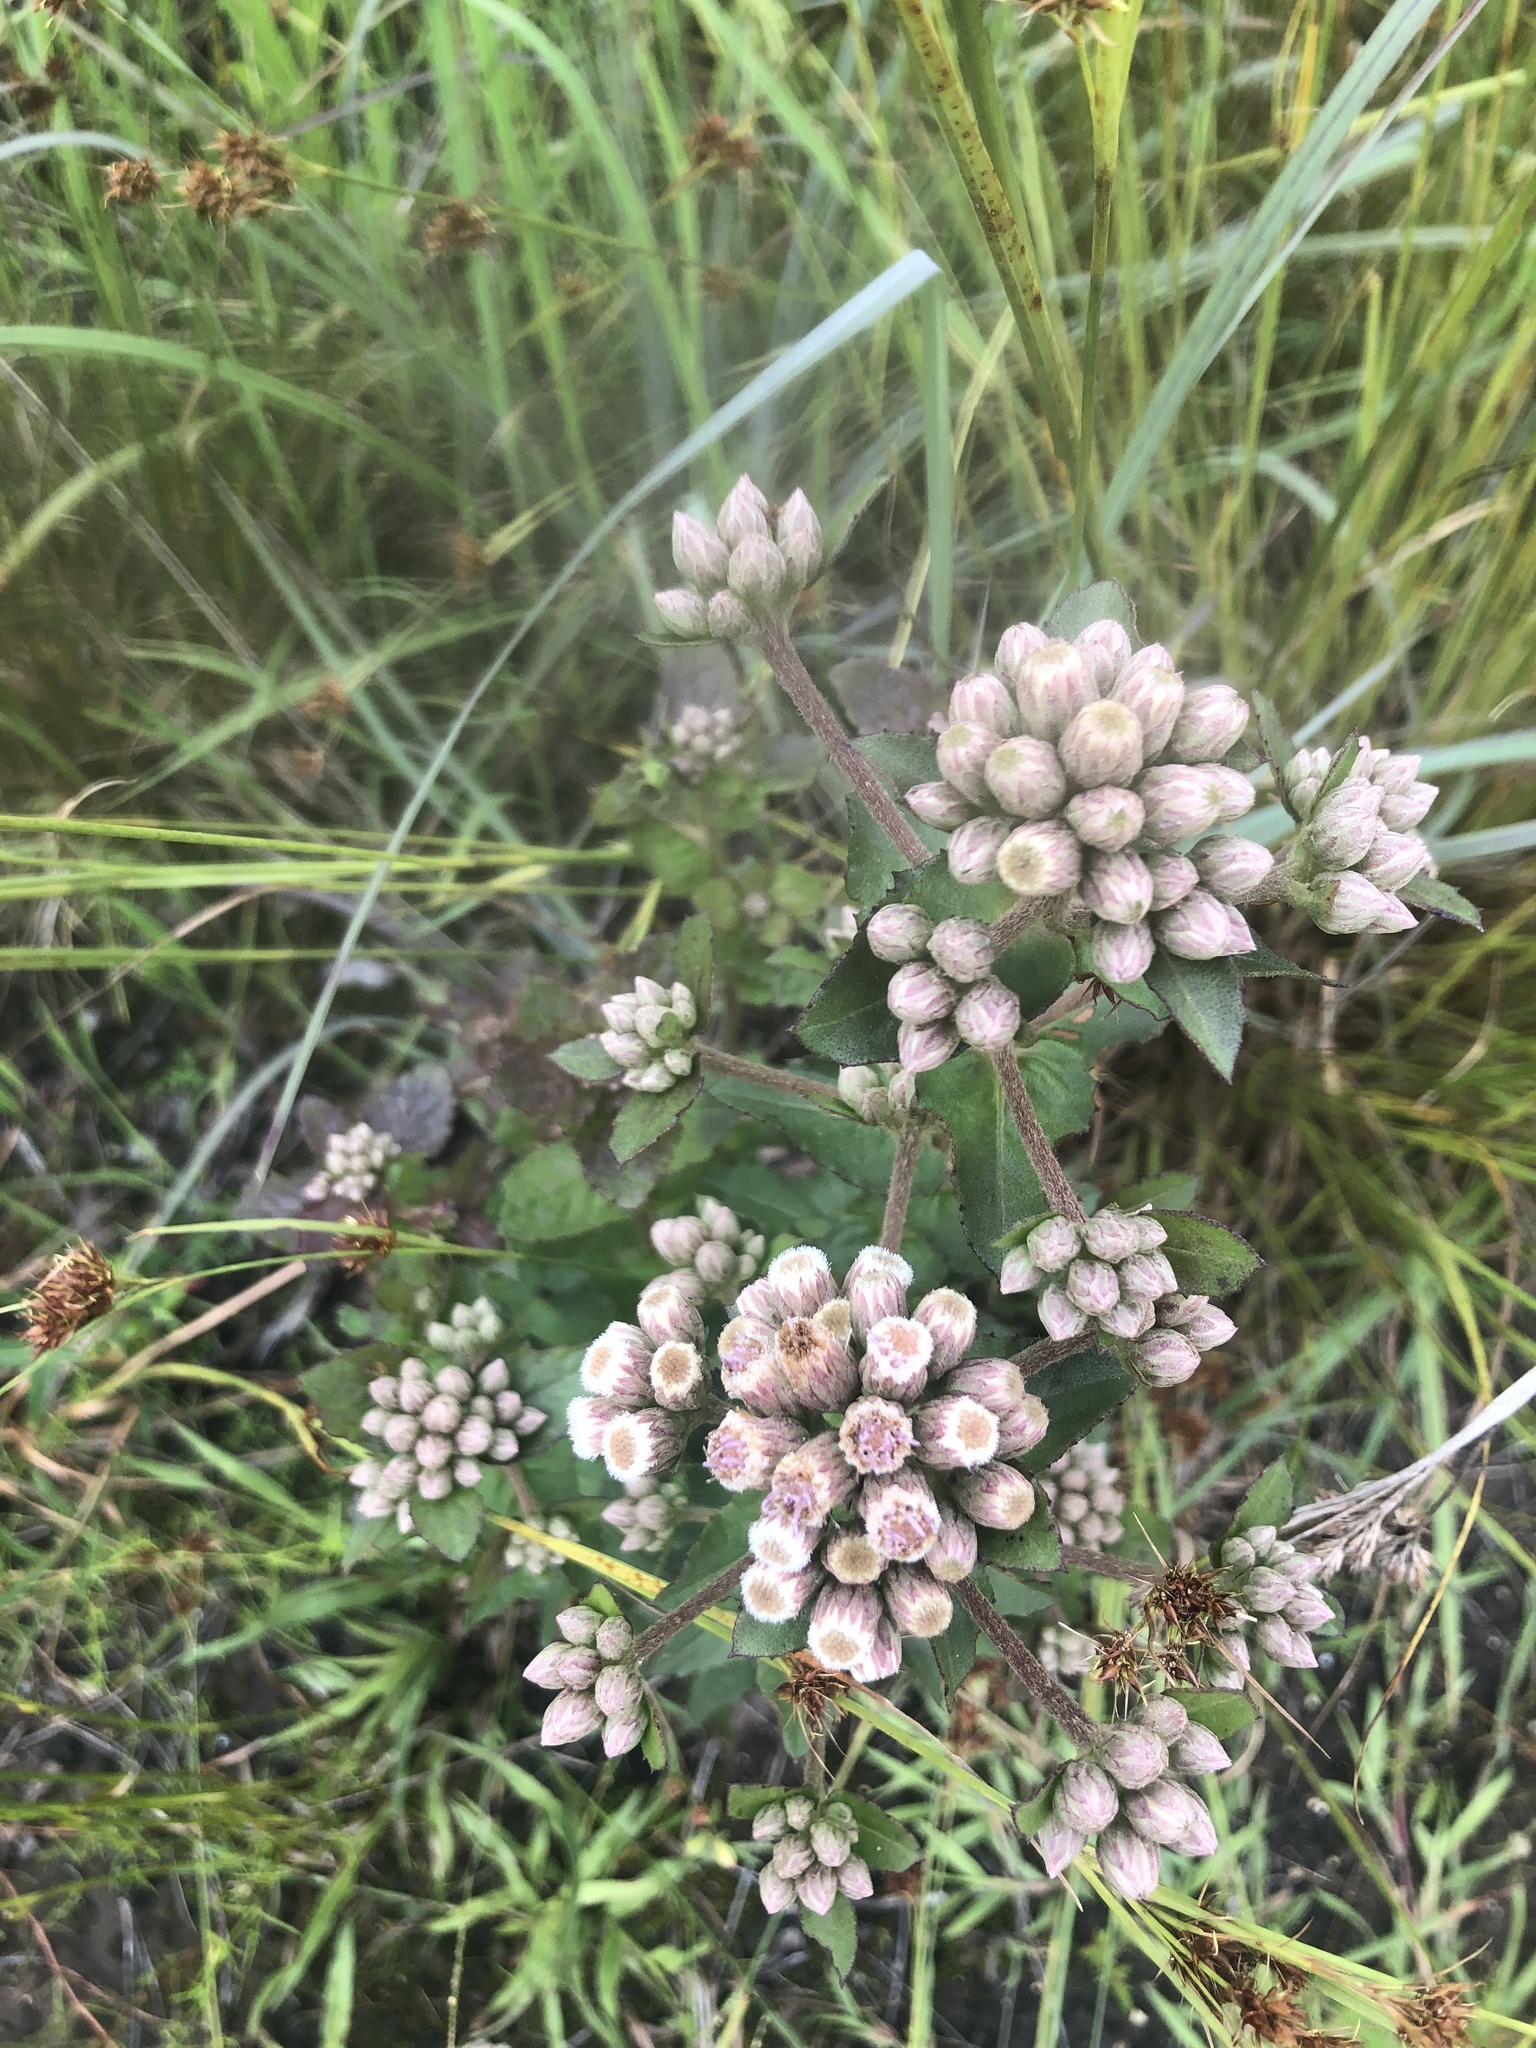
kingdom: Plantae
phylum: Tracheophyta
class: Magnoliopsida
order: Asterales
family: Asteraceae
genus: Pluchea
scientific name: Pluchea foetida
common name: Stinking camphorweed
